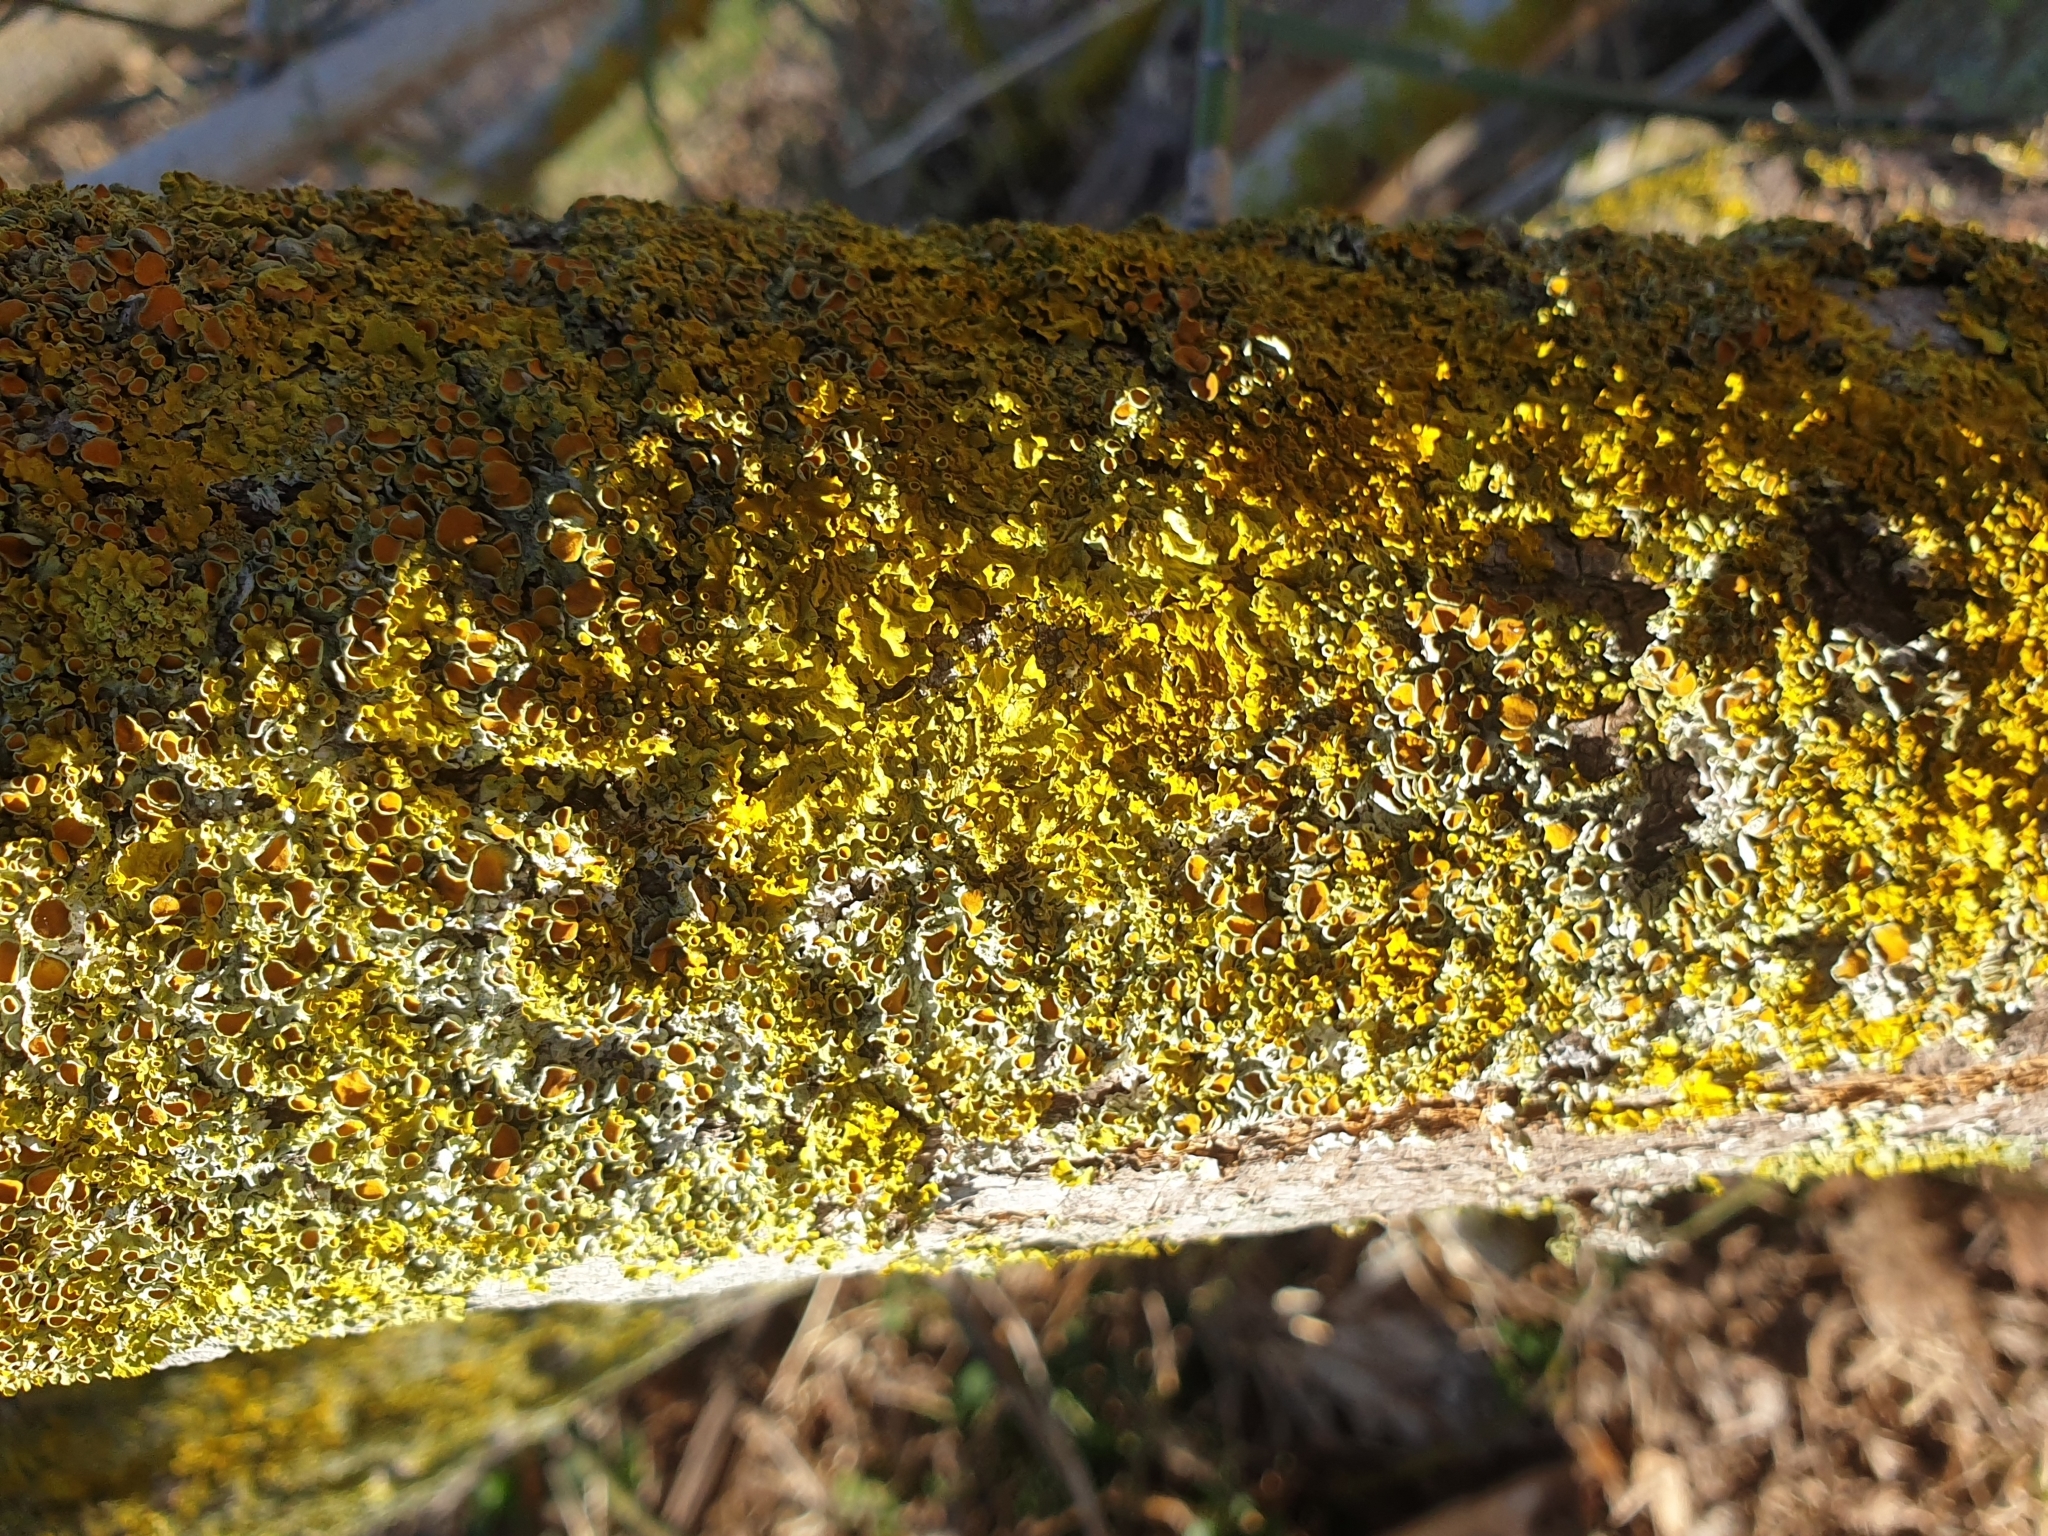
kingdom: Fungi
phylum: Ascomycota
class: Lecanoromycetes
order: Teloschistales
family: Teloschistaceae
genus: Xanthoria
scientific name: Xanthoria parietina
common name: Common orange lichen
